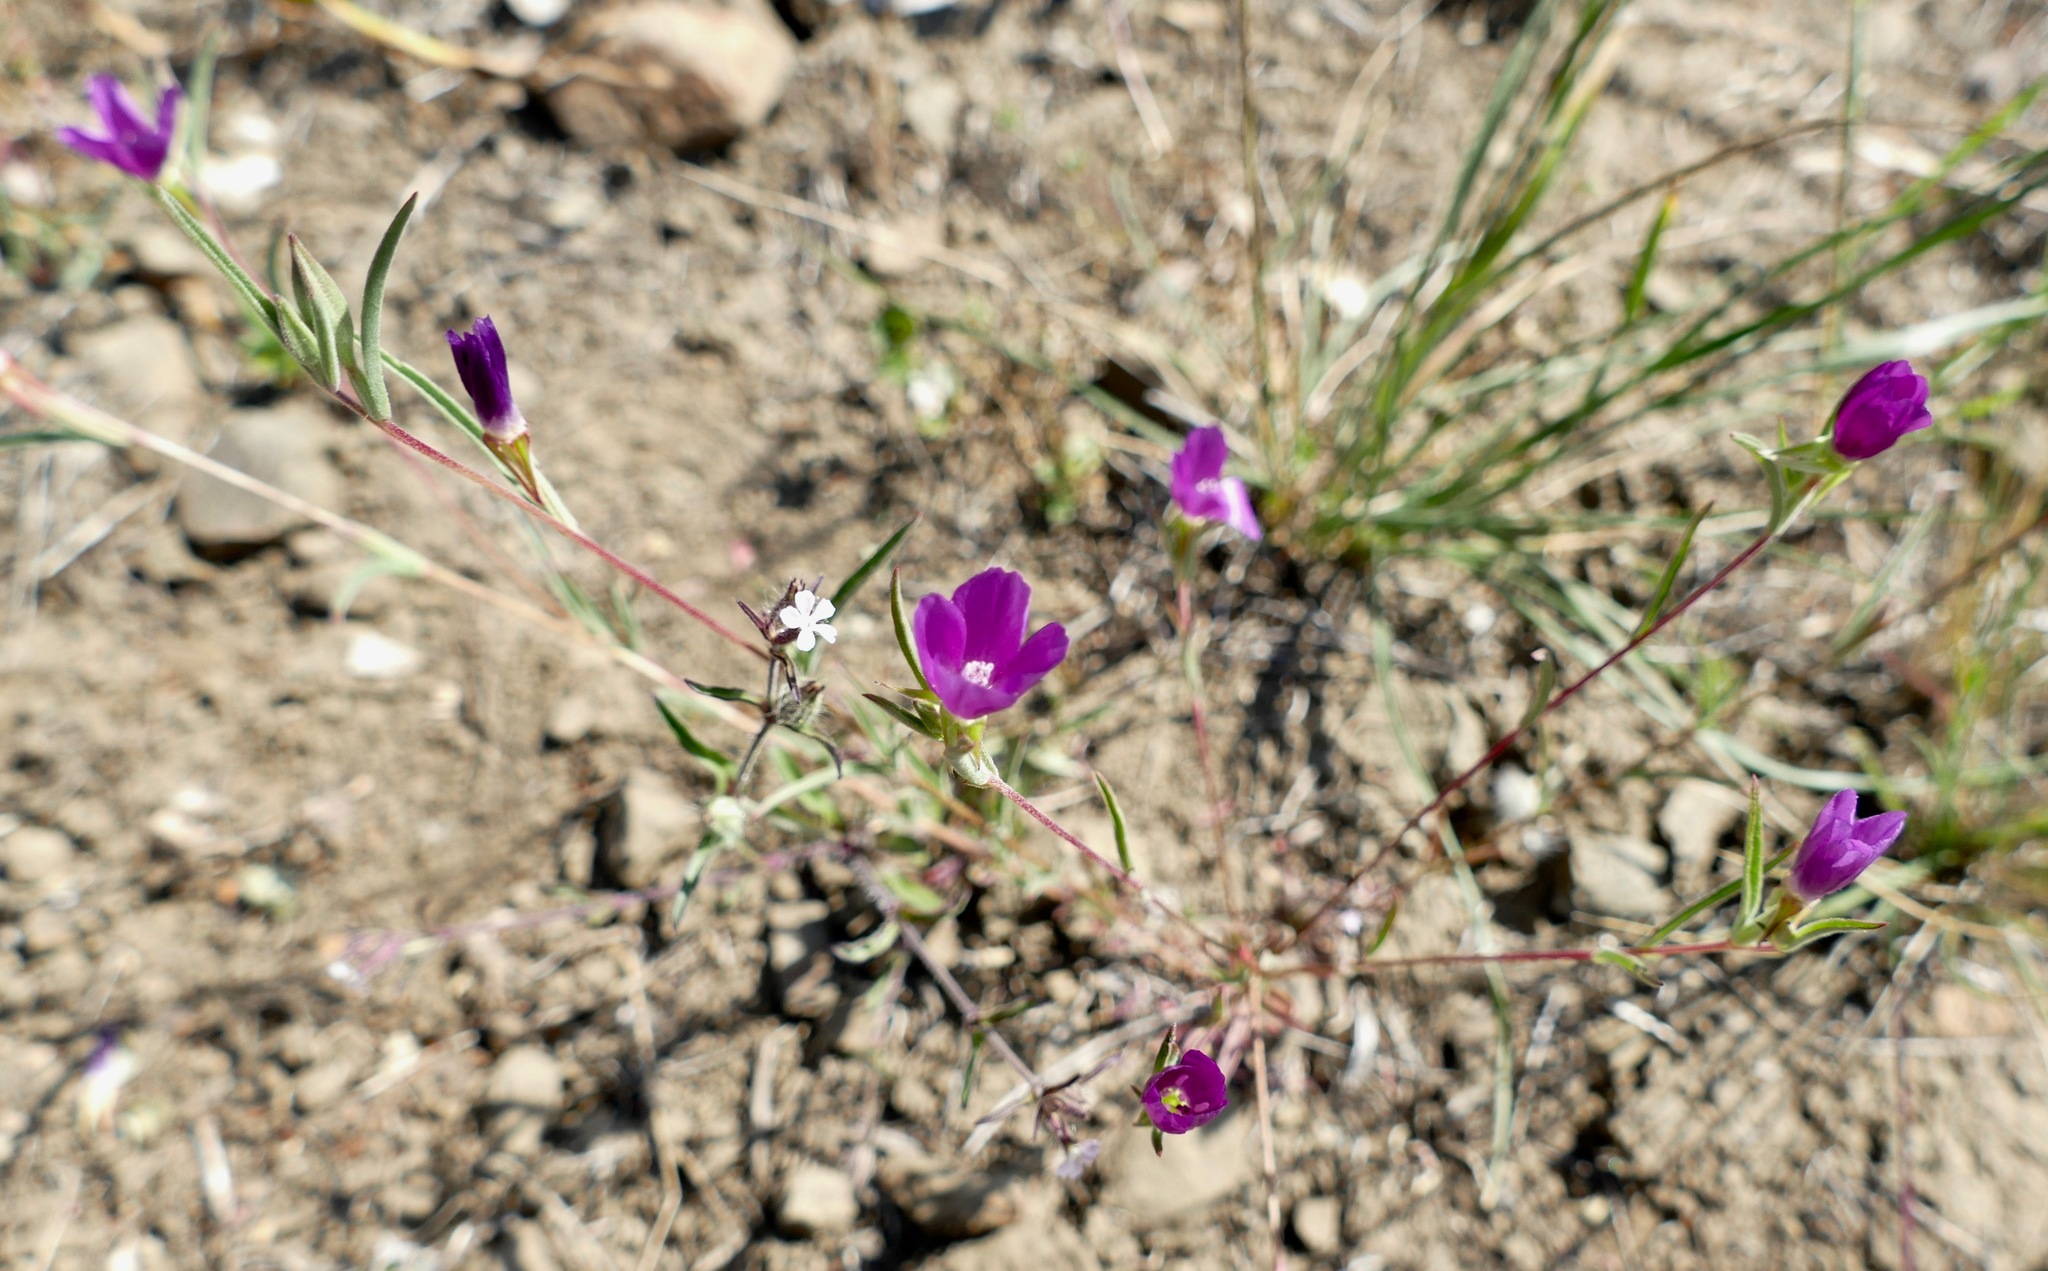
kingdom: Plantae
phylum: Tracheophyta
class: Magnoliopsida
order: Myrtales
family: Onagraceae
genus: Clarkia
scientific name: Clarkia purpurea
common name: Purple clarkia
